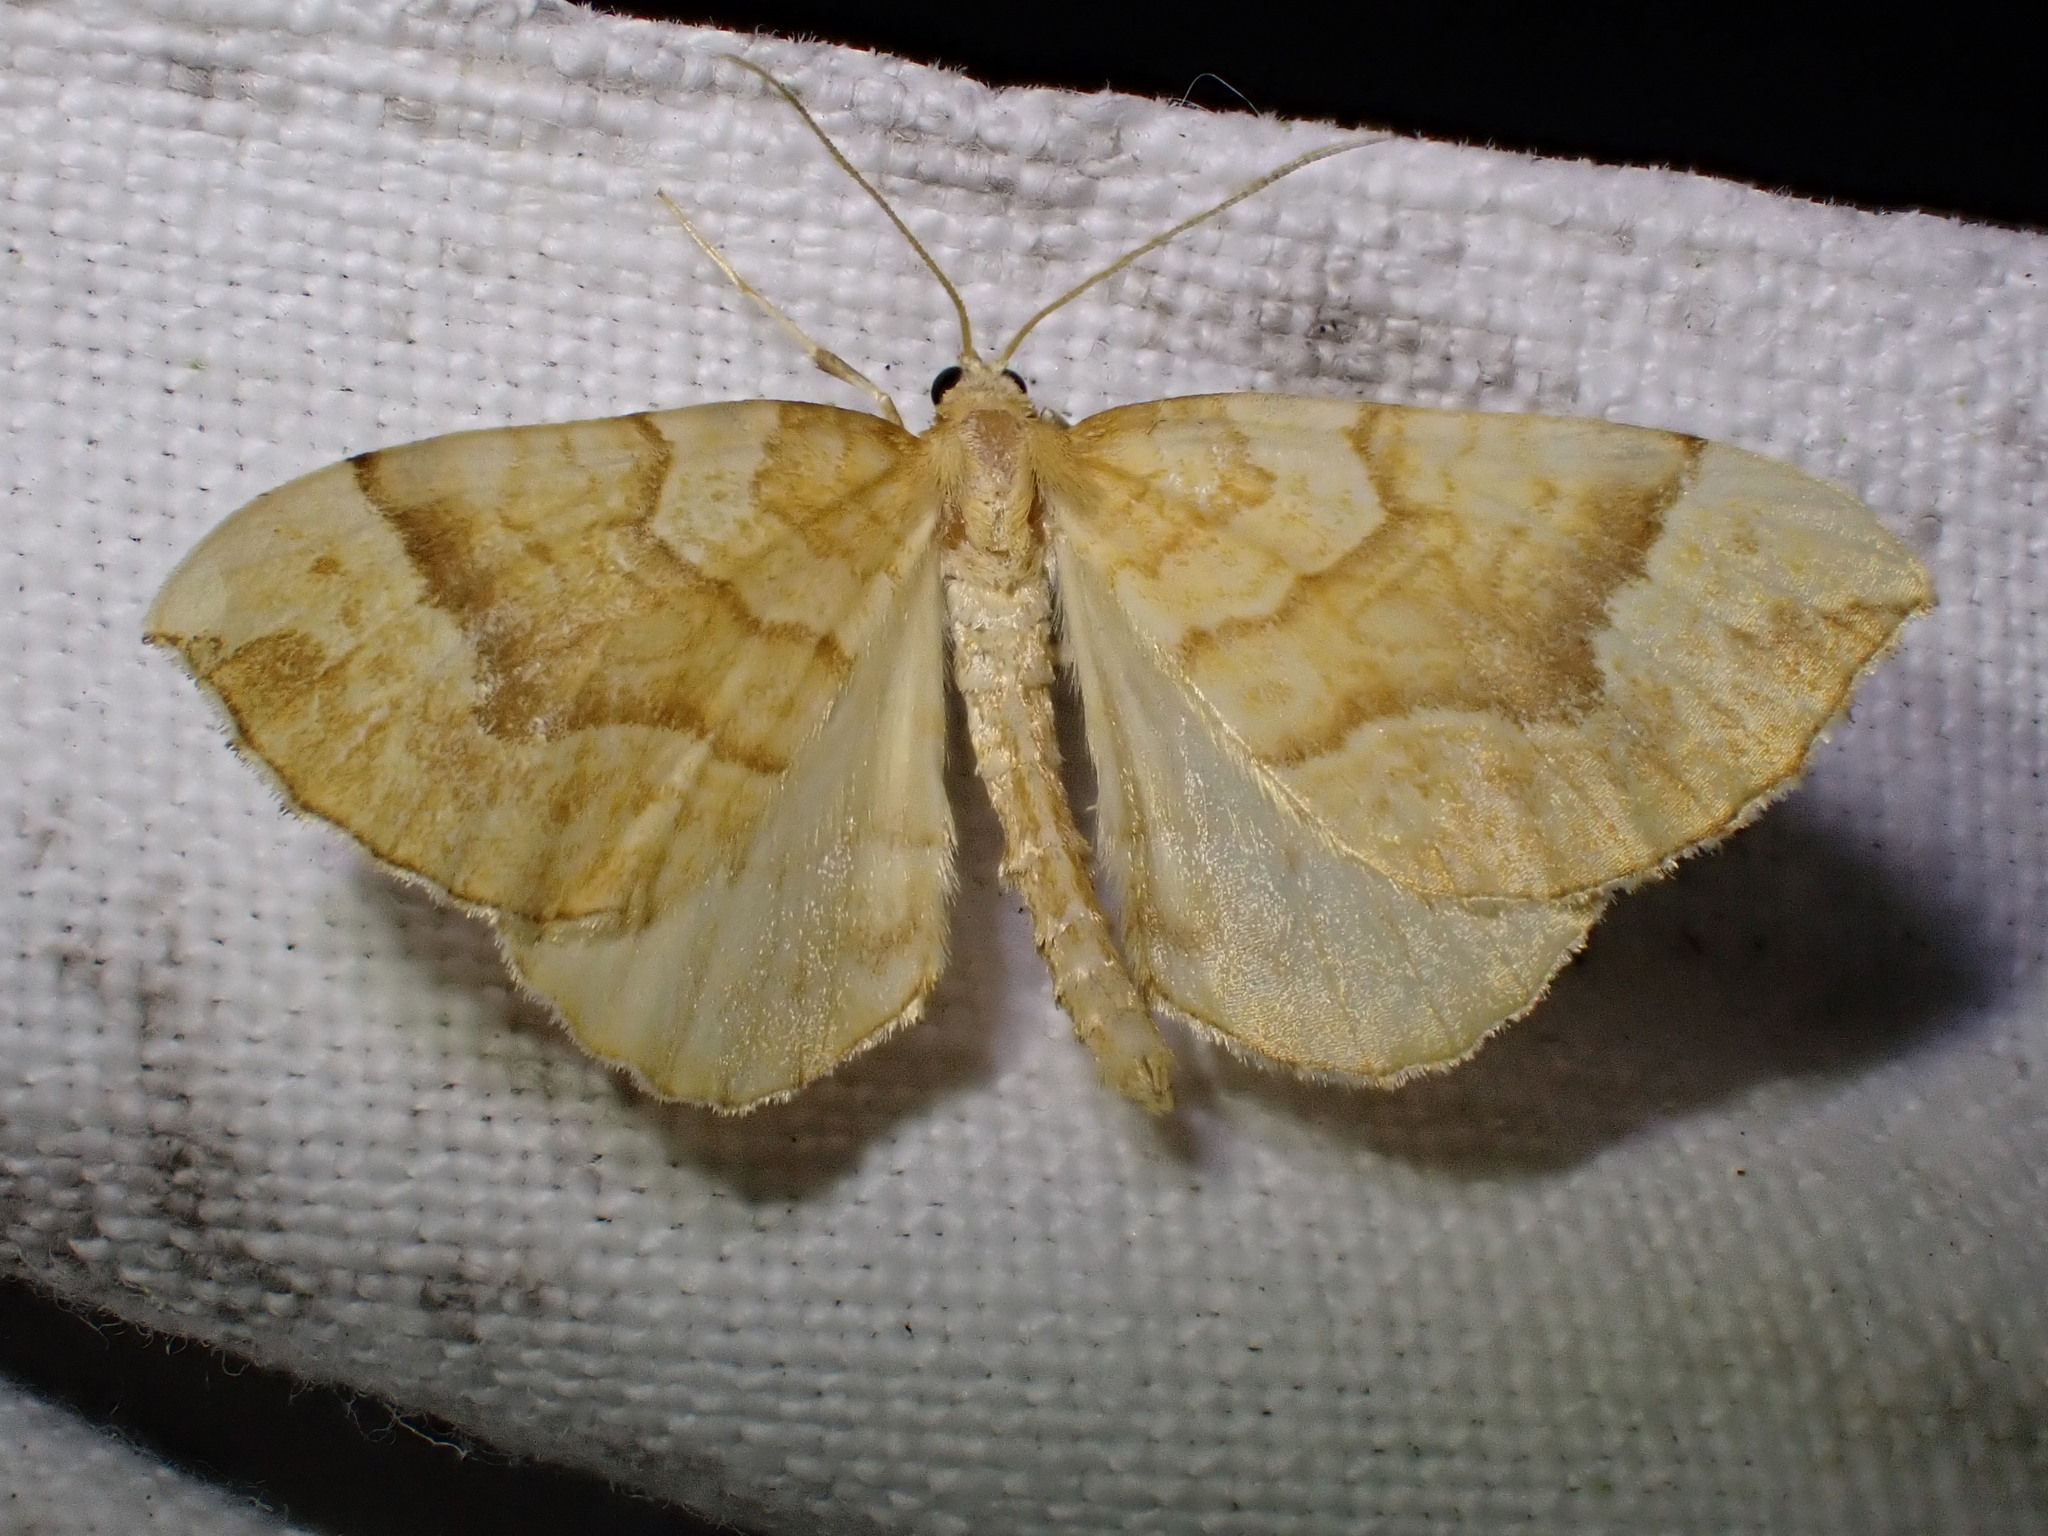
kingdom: Animalia
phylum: Arthropoda
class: Insecta
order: Lepidoptera
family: Geometridae
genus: Eulithis
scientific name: Eulithis mellinata
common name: Spinach
